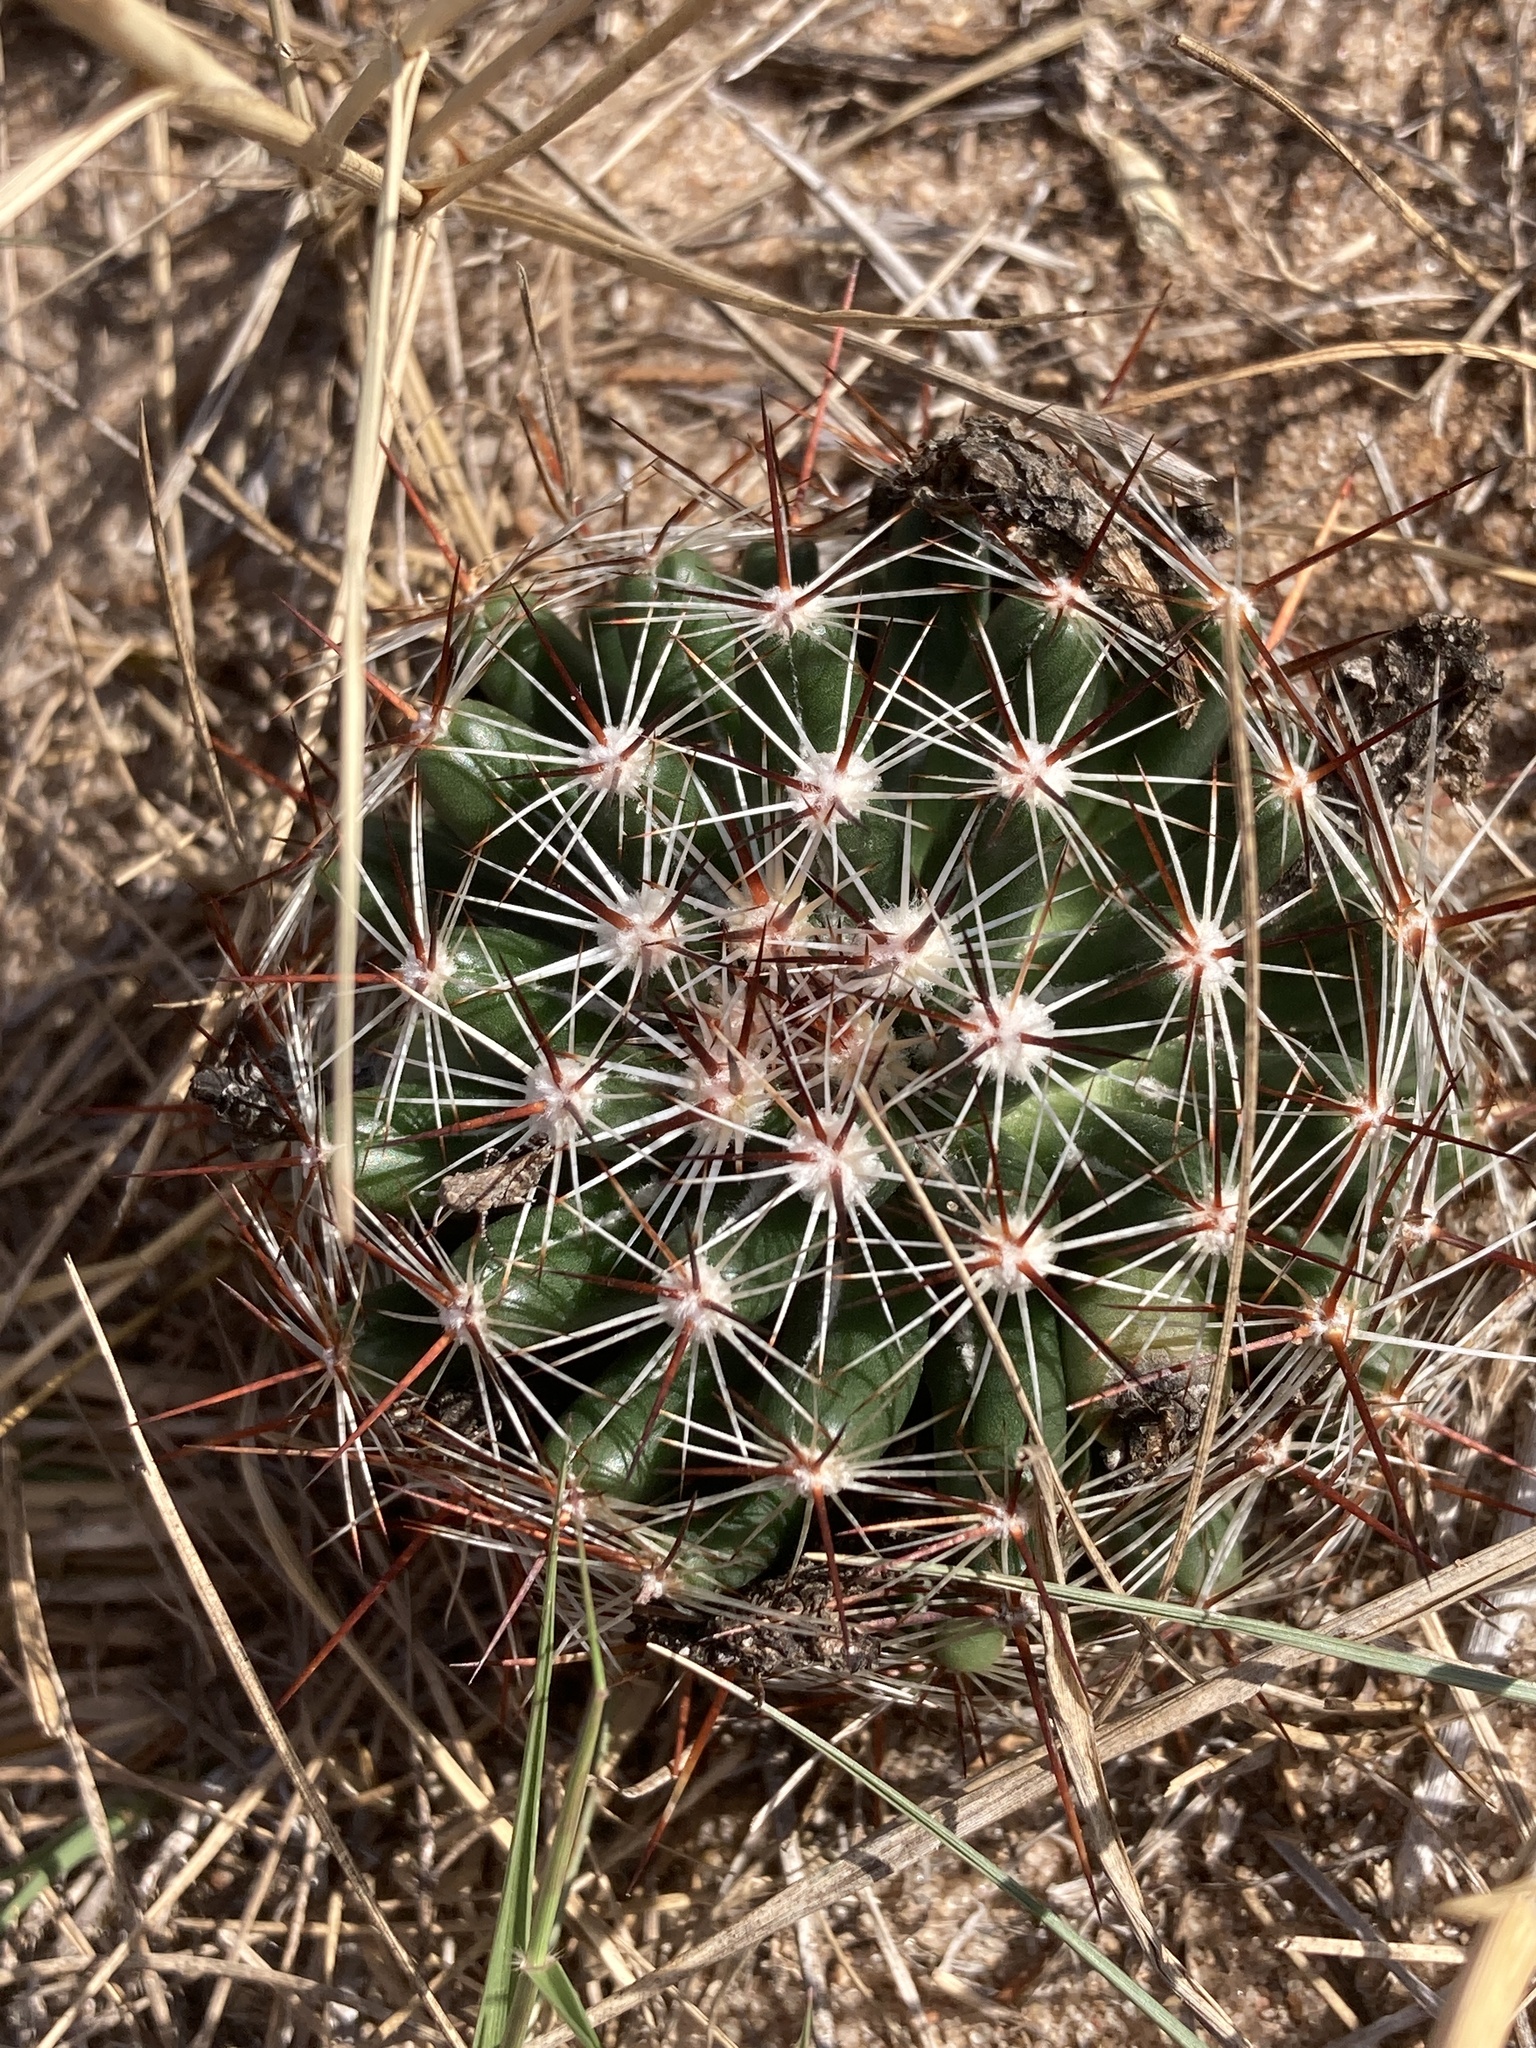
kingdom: Plantae
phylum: Tracheophyta
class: Magnoliopsida
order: Caryophyllales
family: Cactaceae
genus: Pelecyphora
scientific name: Pelecyphora vivipara
